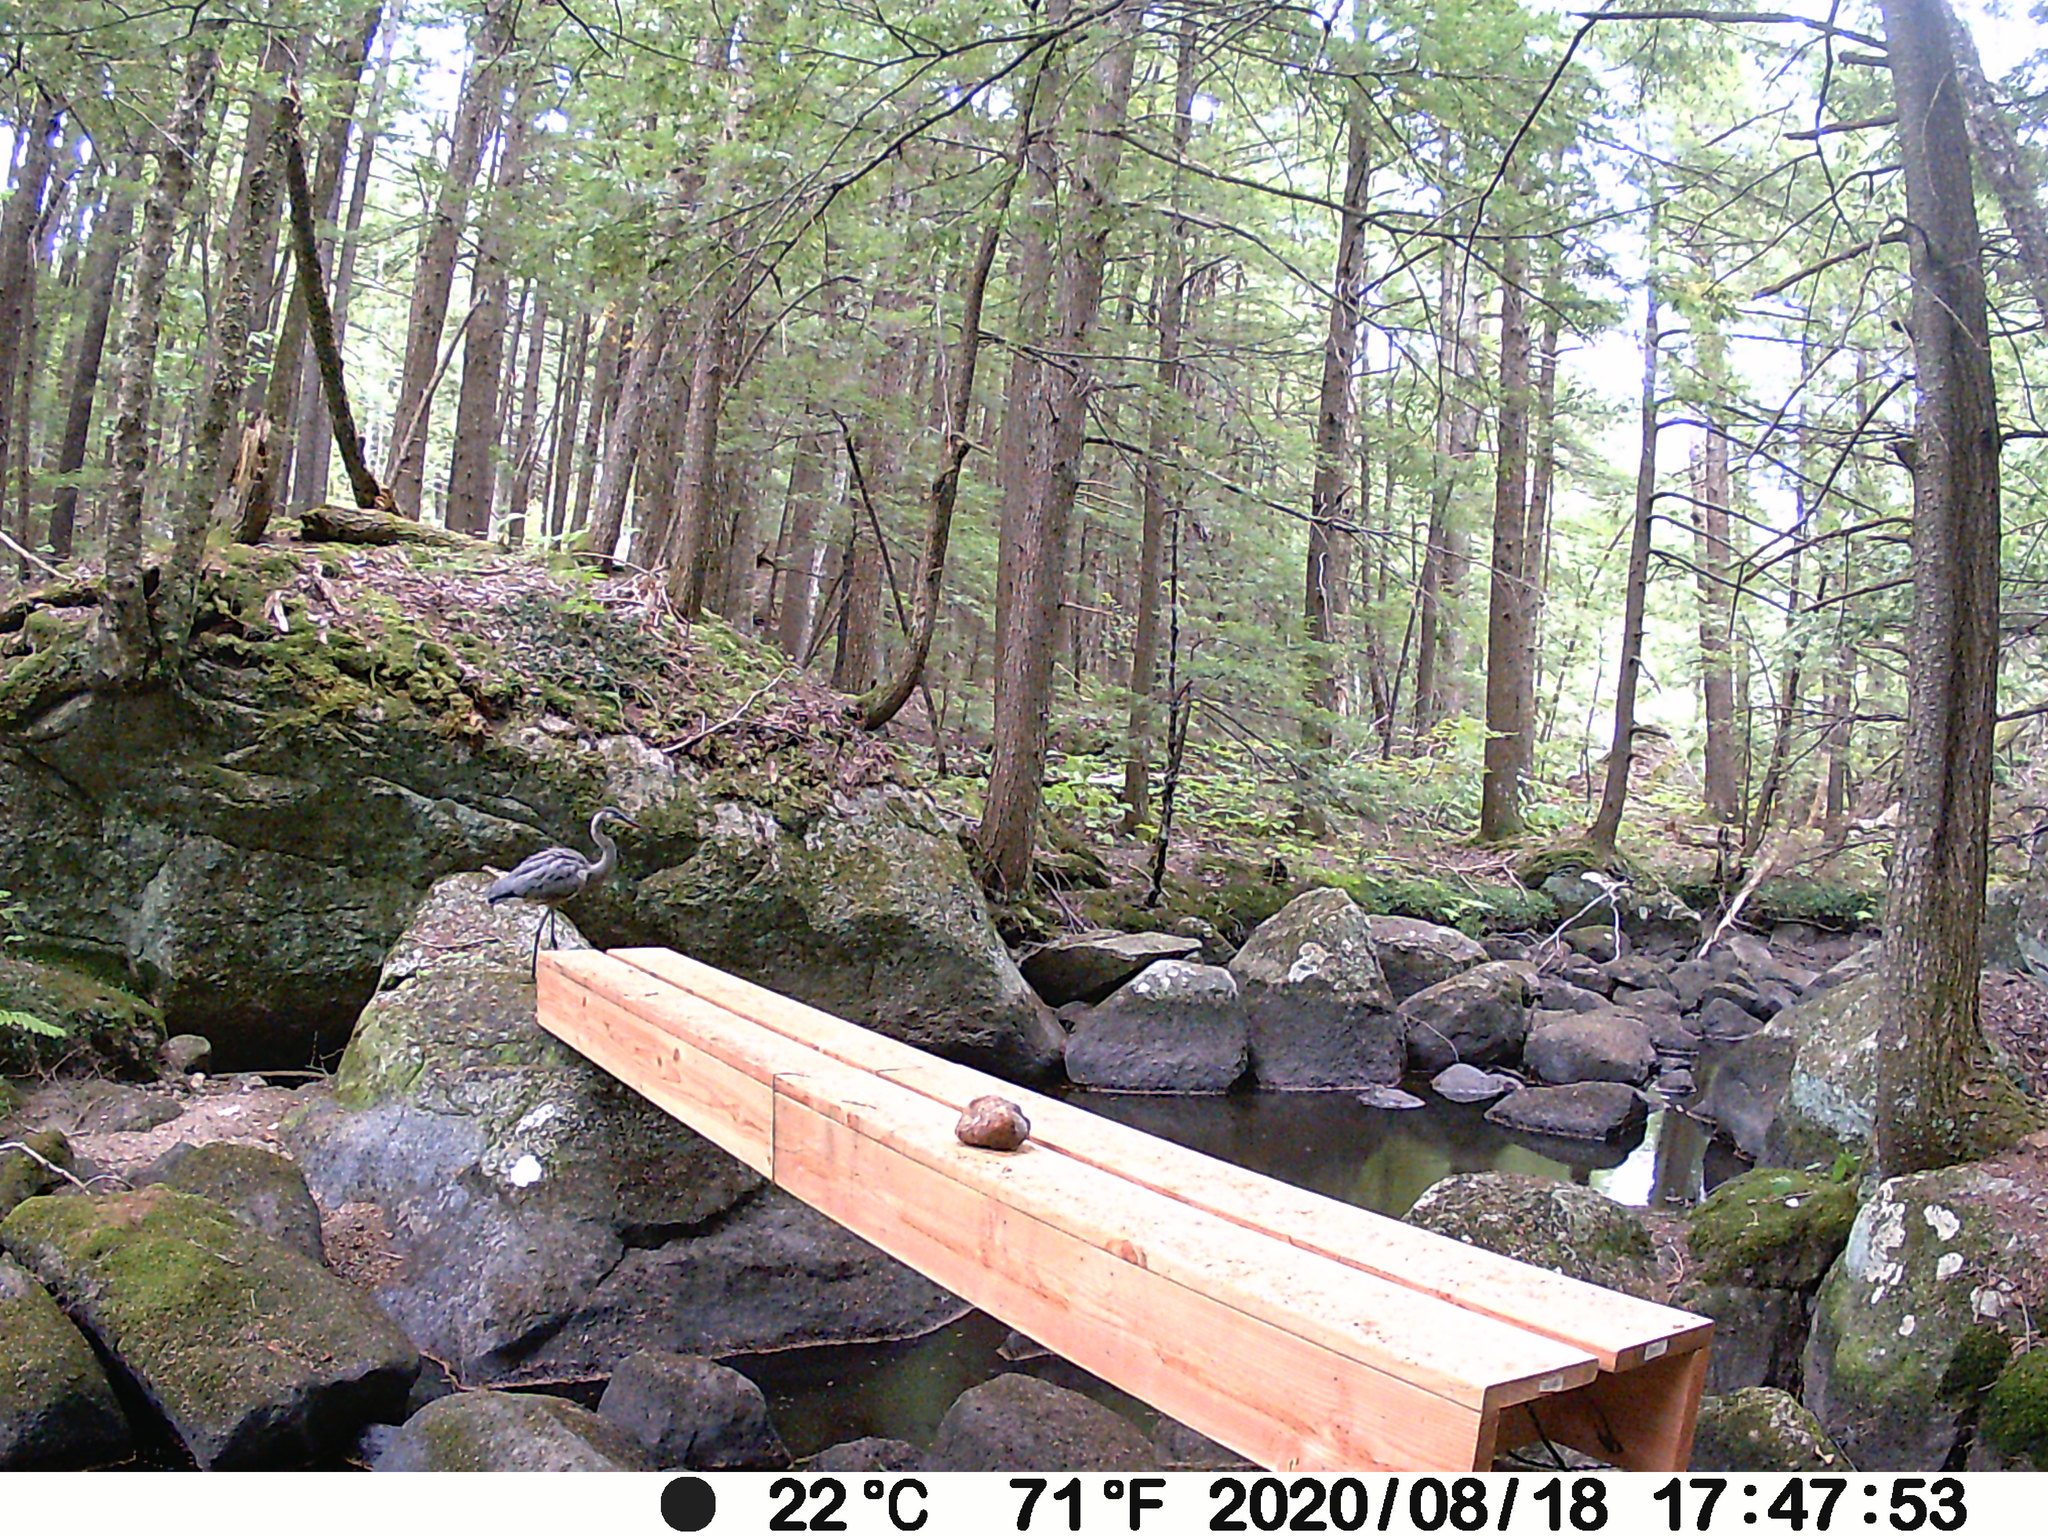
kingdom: Animalia
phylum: Chordata
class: Aves
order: Pelecaniformes
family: Ardeidae
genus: Ardea
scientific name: Ardea herodias
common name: Great blue heron
